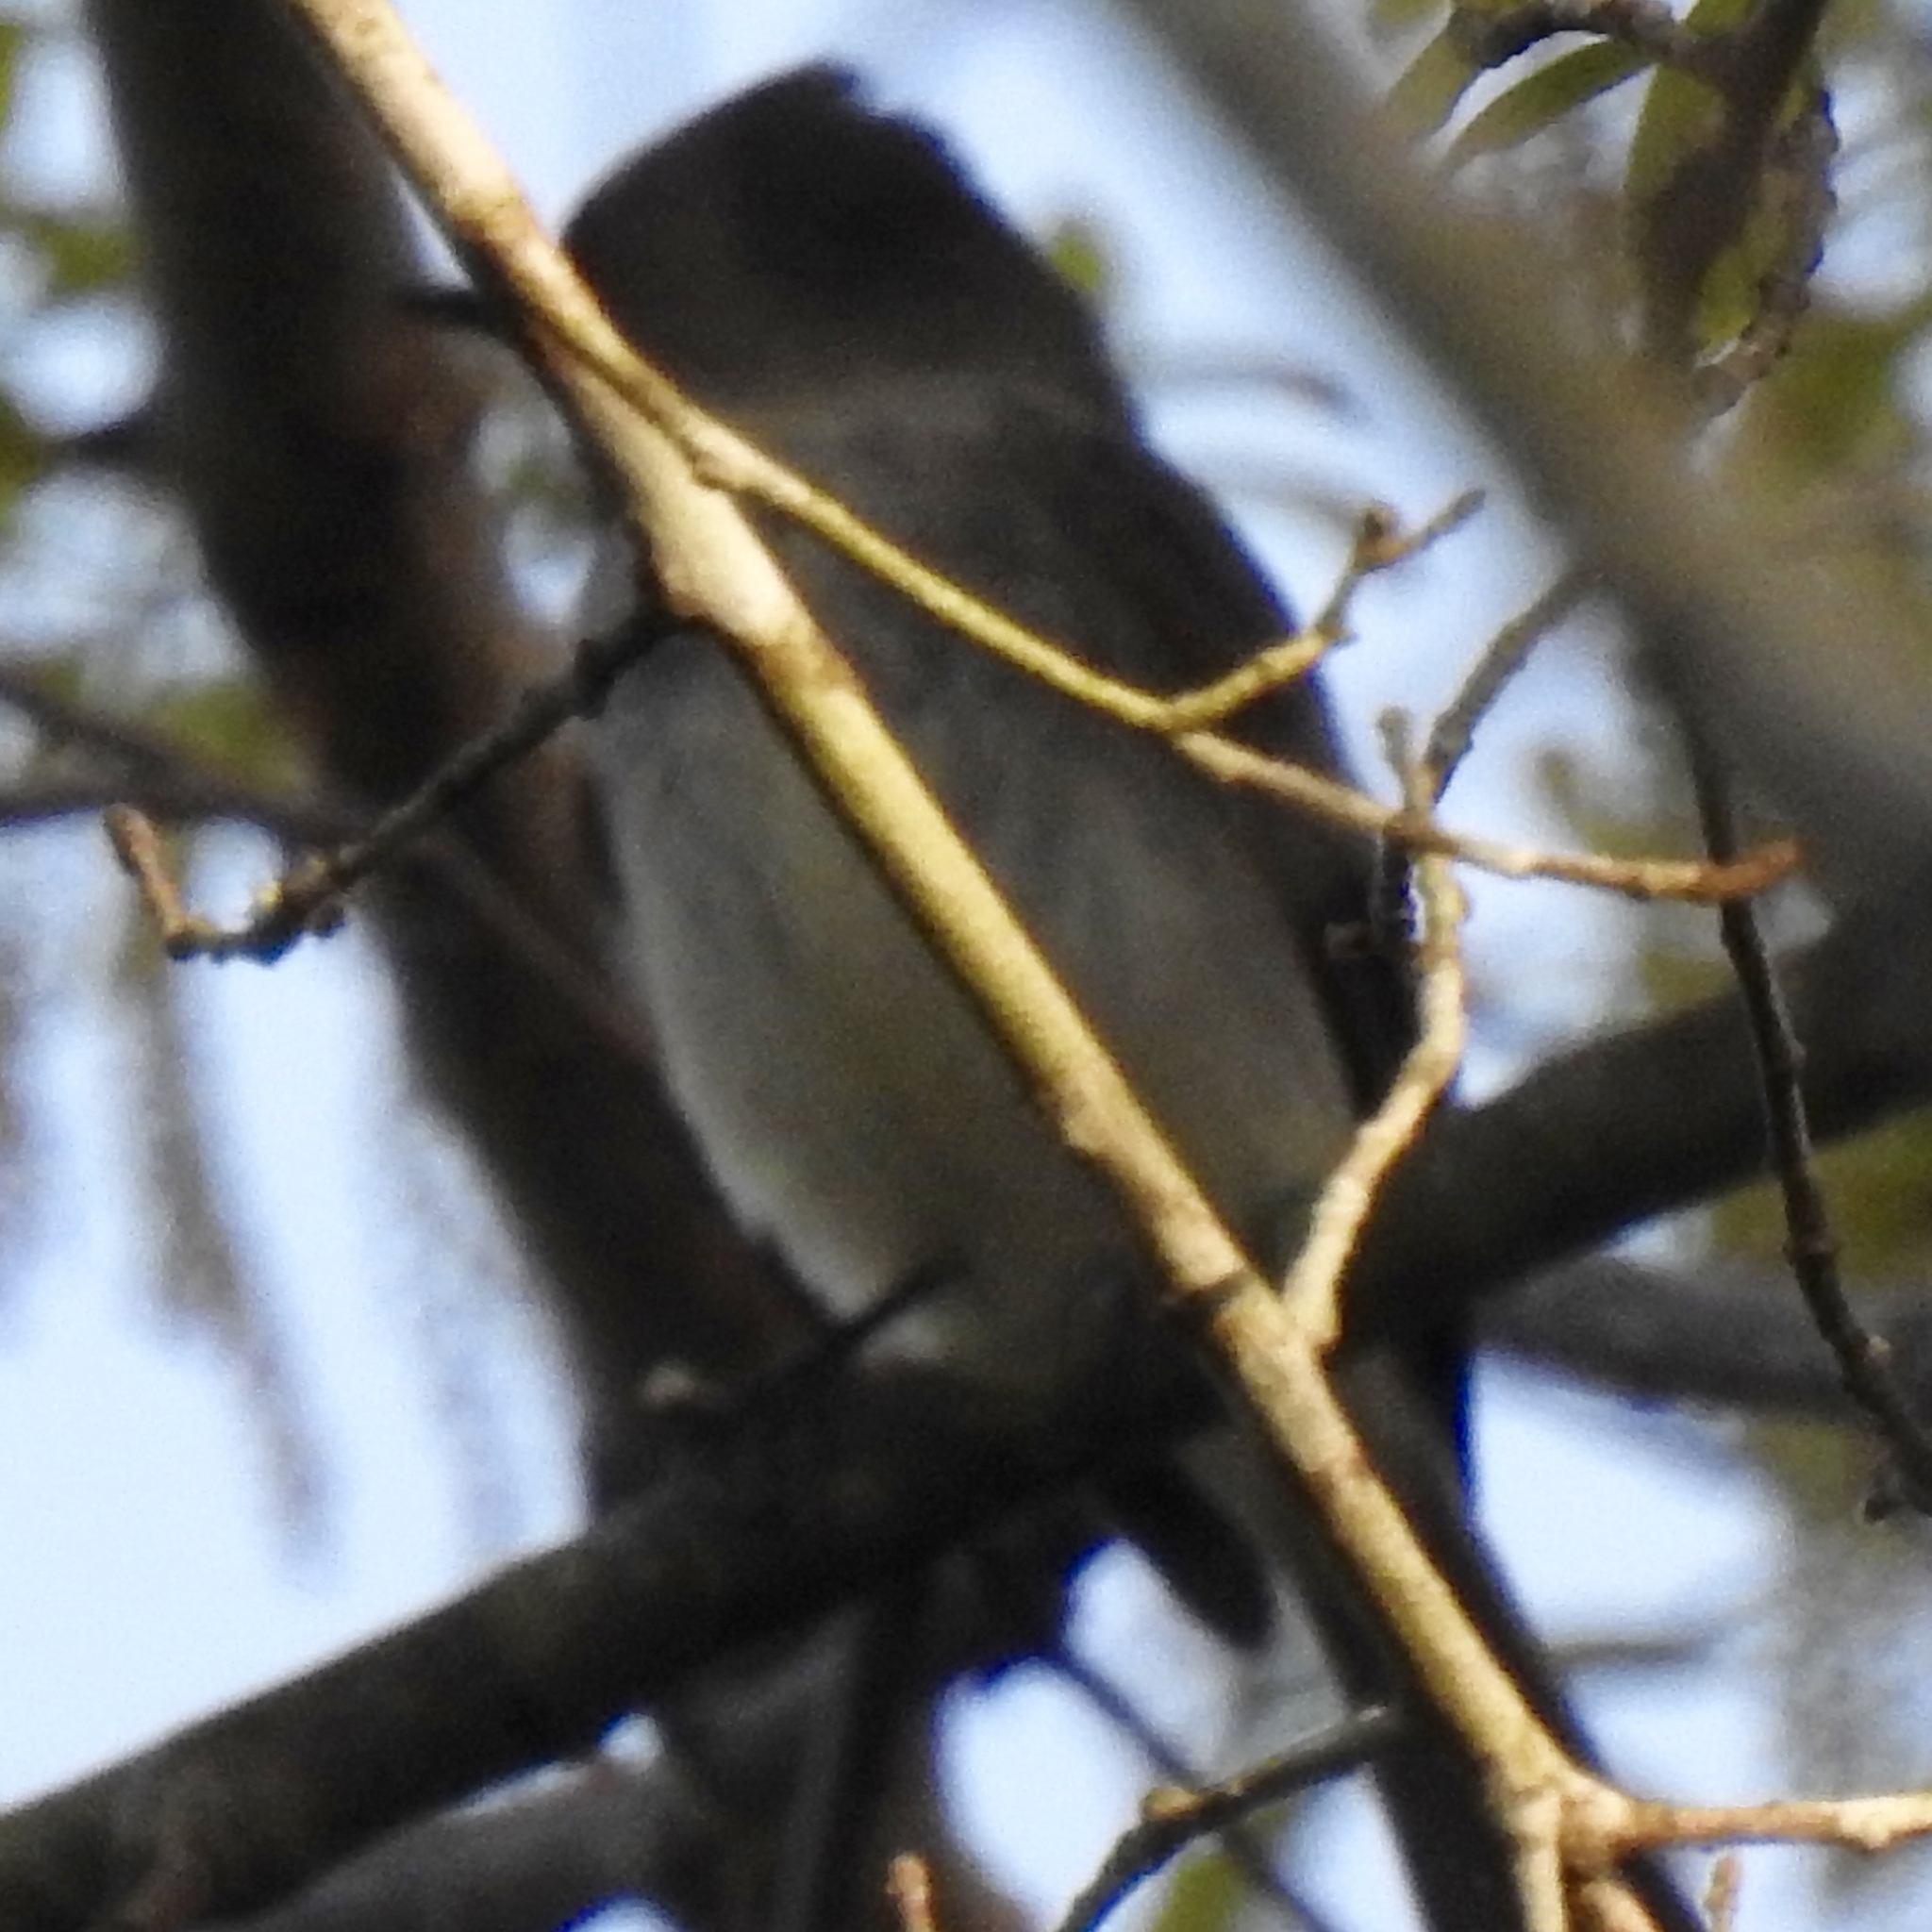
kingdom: Animalia
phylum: Chordata
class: Aves
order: Passeriformes
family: Tyrannidae
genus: Sayornis
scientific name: Sayornis phoebe
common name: Eastern phoebe
